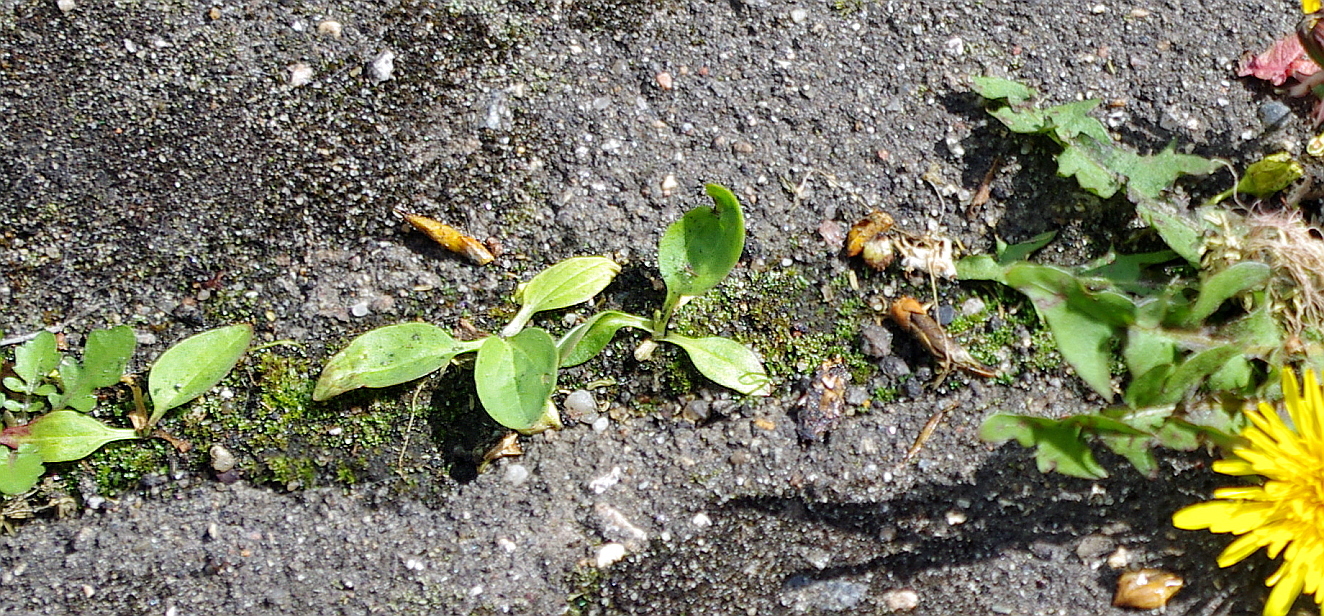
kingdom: Plantae
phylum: Tracheophyta
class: Magnoliopsida
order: Lamiales
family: Plantaginaceae
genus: Plantago
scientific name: Plantago major
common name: Common plantain
